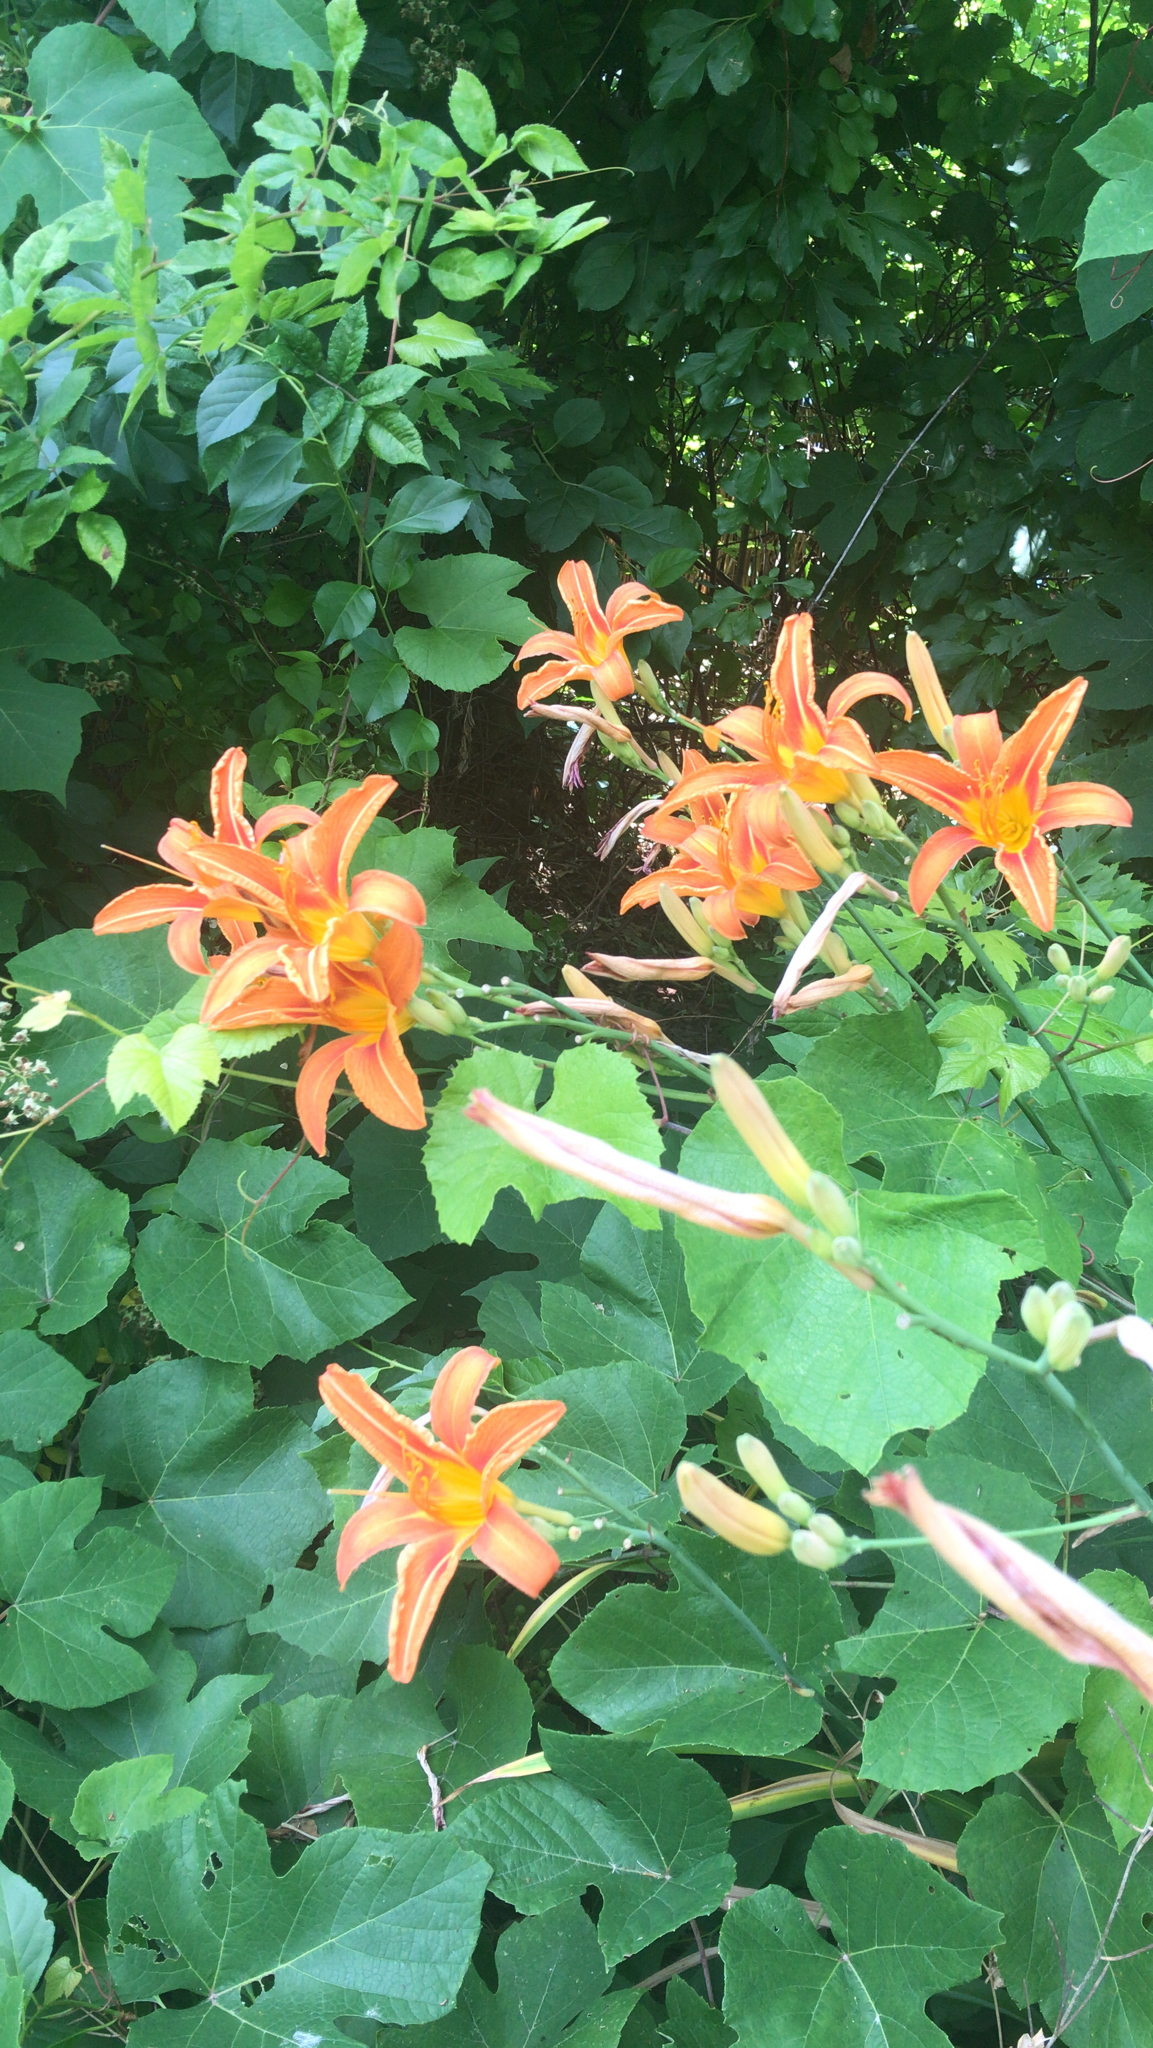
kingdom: Plantae
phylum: Tracheophyta
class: Liliopsida
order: Asparagales
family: Asphodelaceae
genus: Hemerocallis
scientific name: Hemerocallis fulva
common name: Orange day-lily
